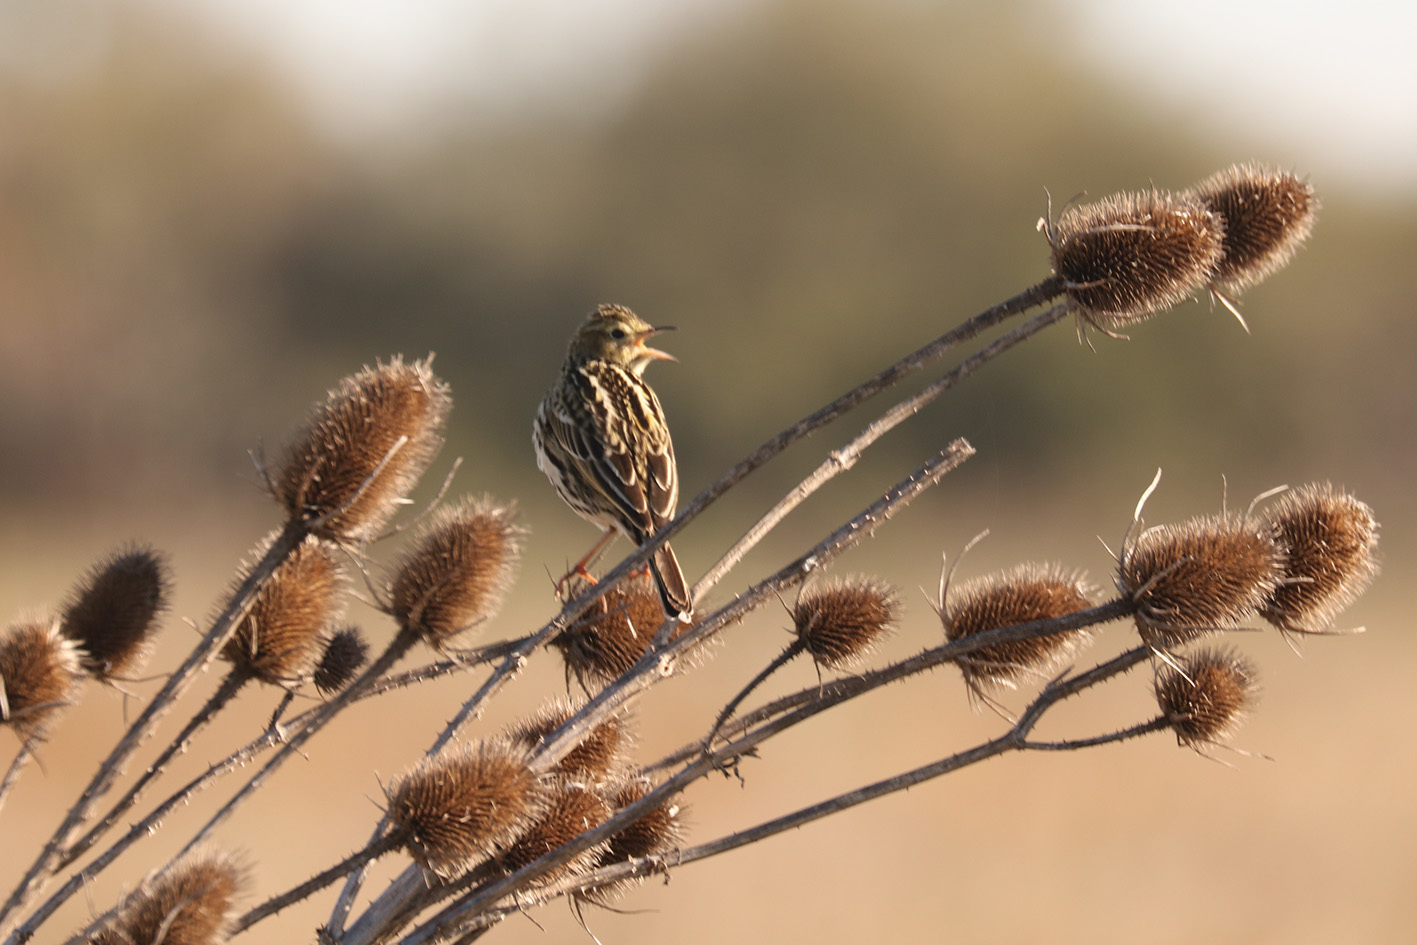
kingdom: Animalia
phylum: Chordata
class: Aves
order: Passeriformes
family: Motacillidae
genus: Anthus
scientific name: Anthus correndera
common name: Correndera pipit
